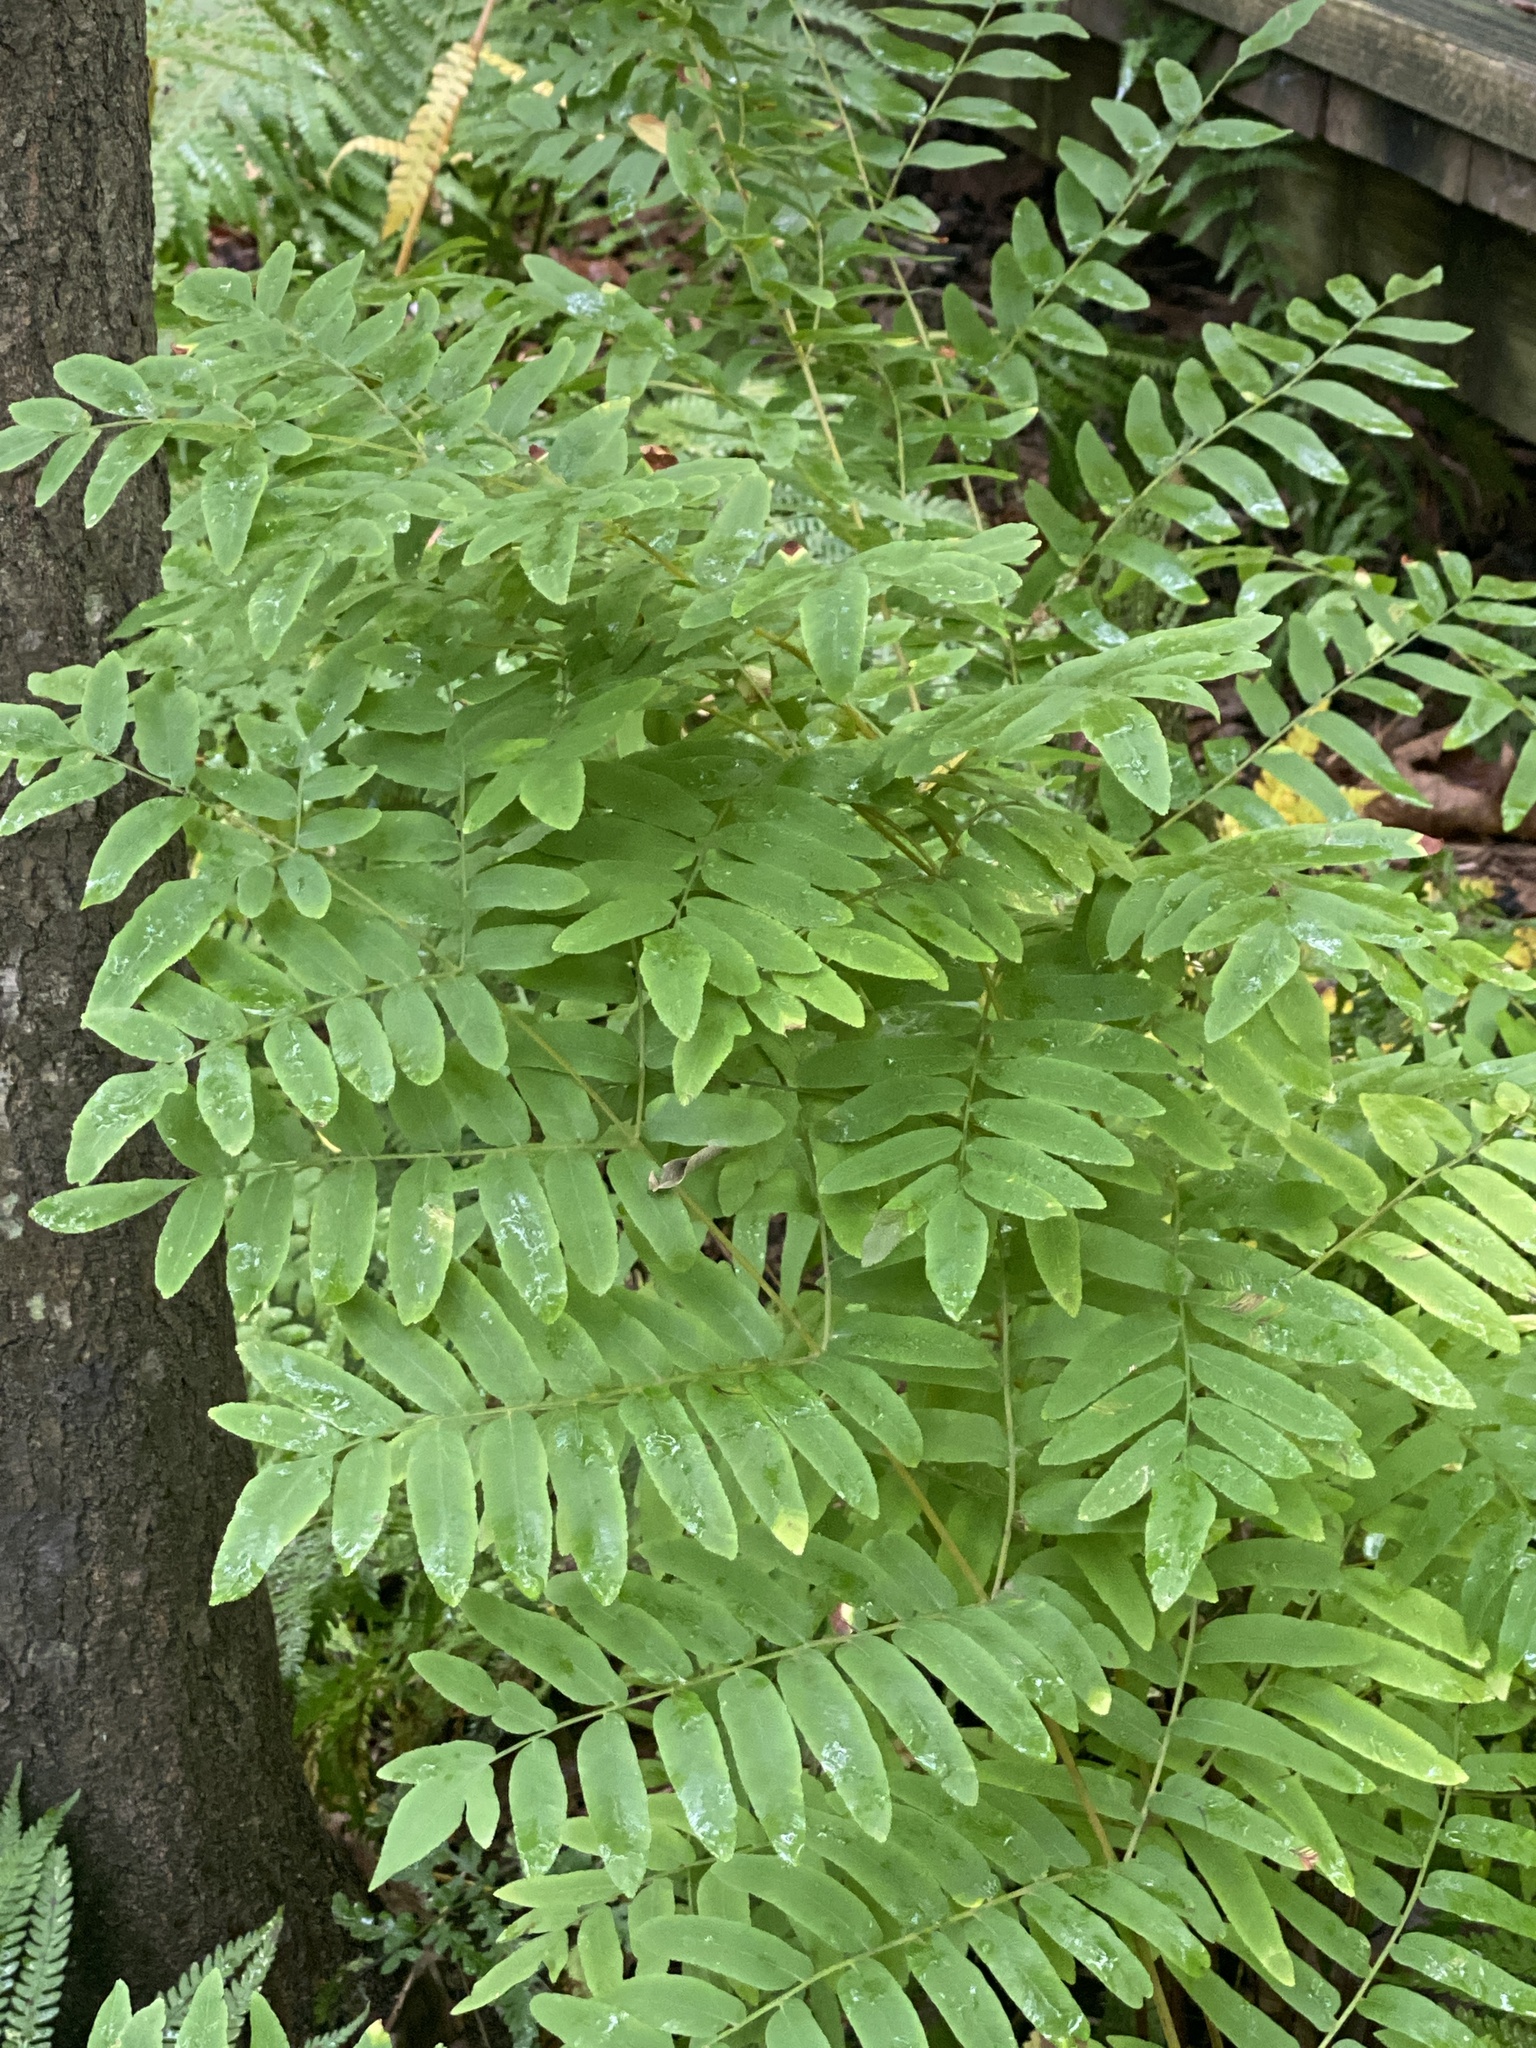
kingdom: Plantae
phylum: Tracheophyta
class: Polypodiopsida
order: Osmundales
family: Osmundaceae
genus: Osmunda
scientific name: Osmunda spectabilis
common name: American royal fern
